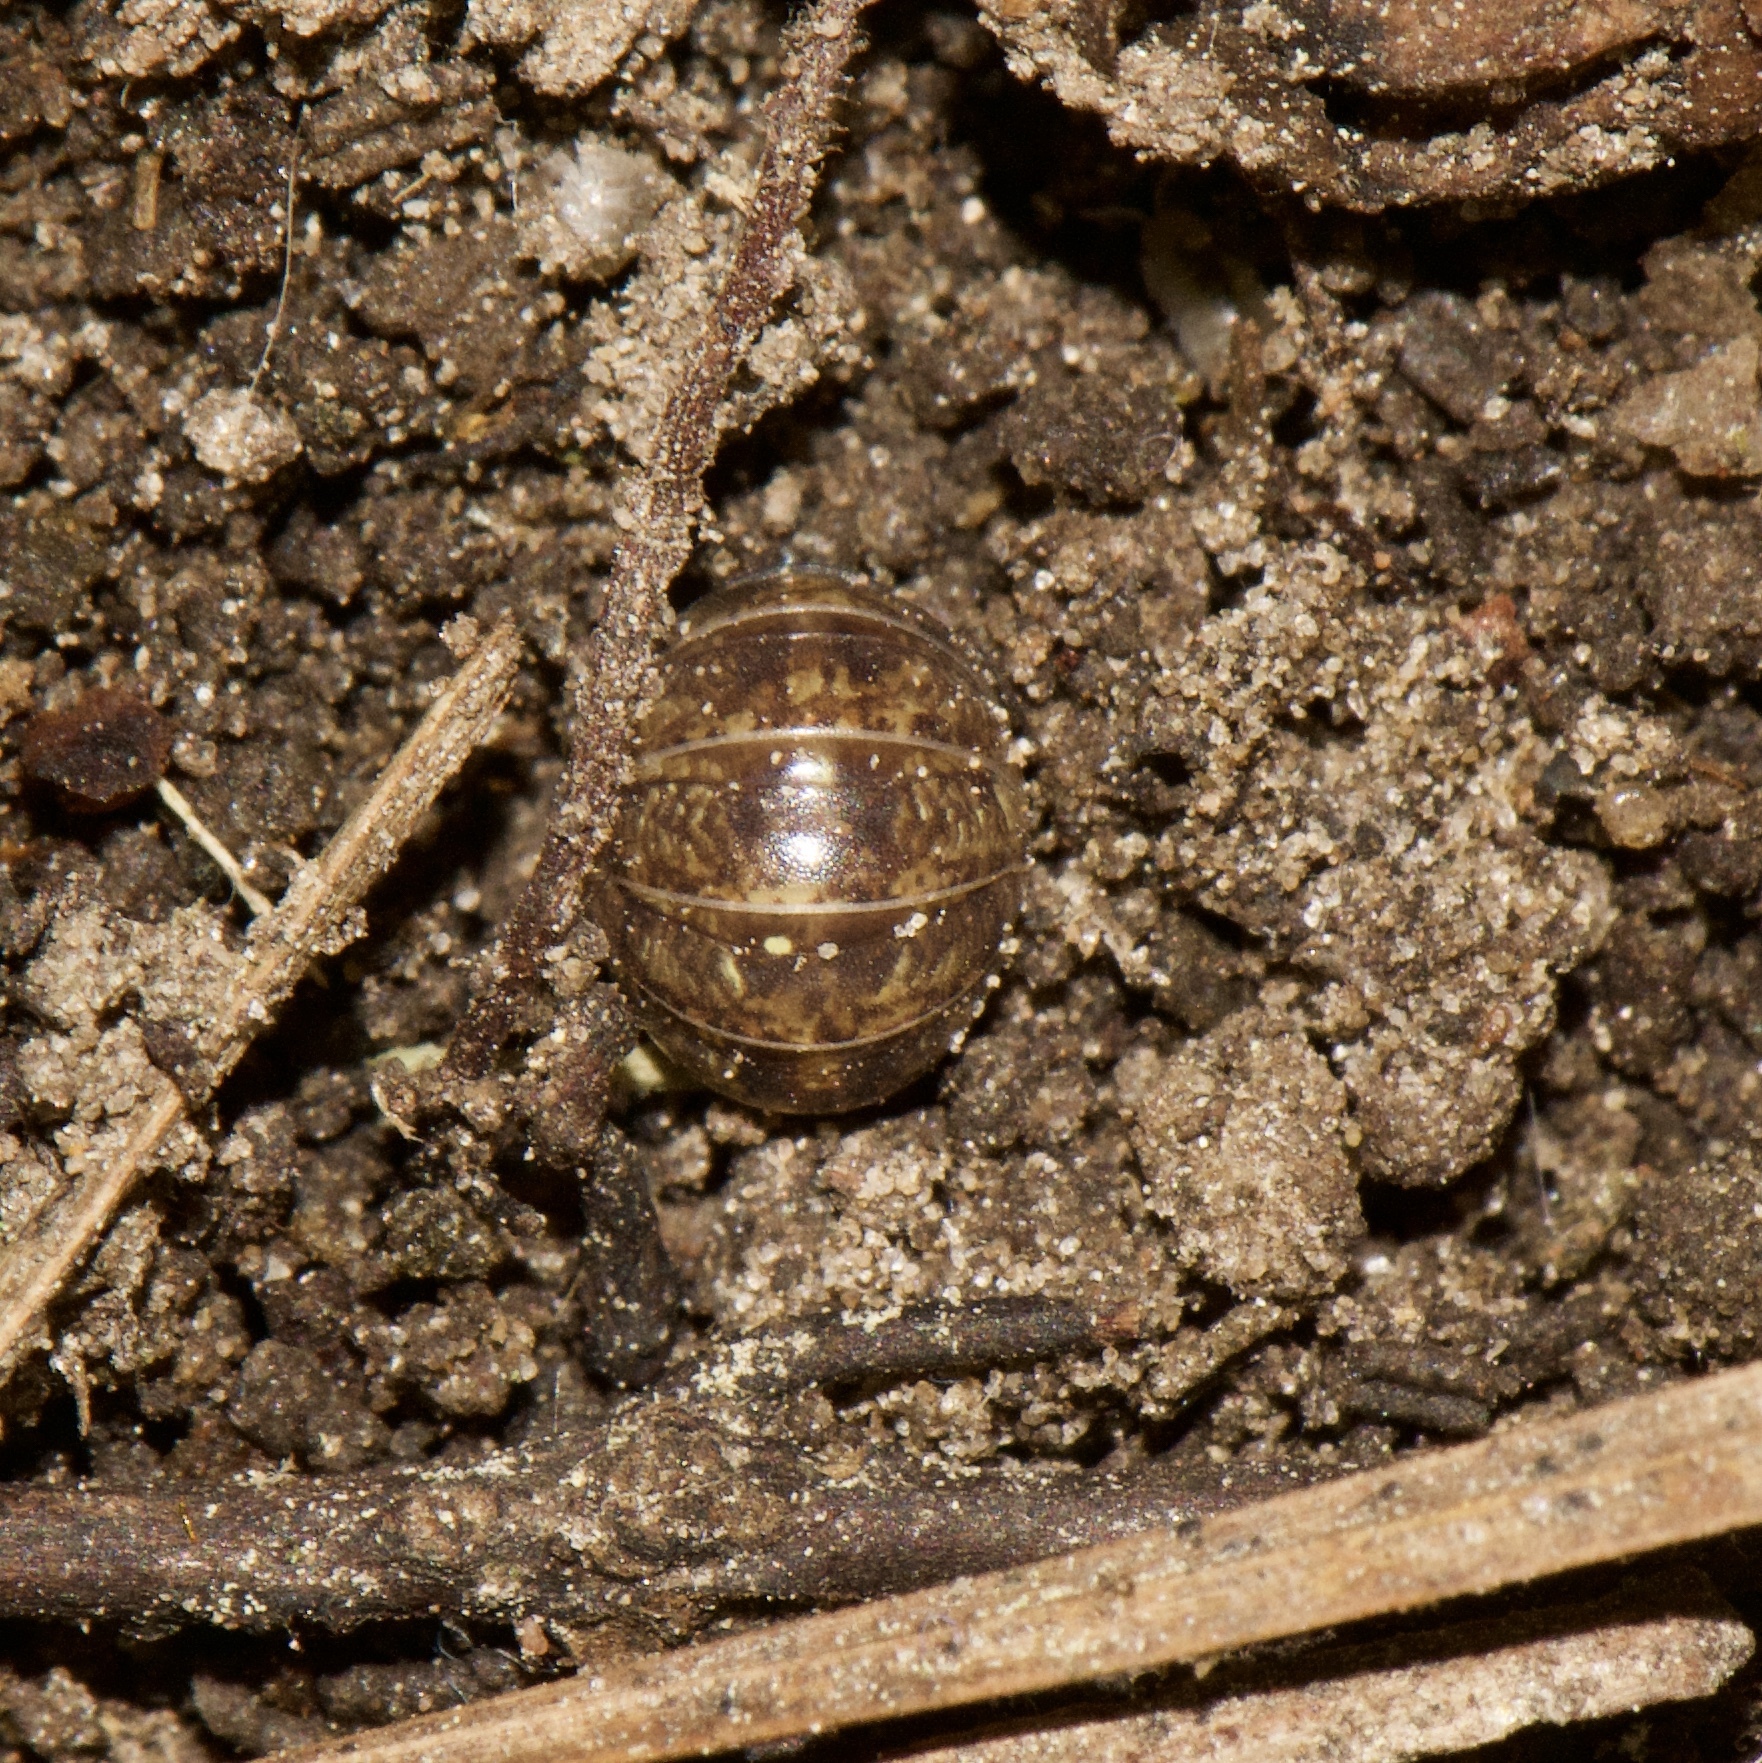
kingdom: Animalia
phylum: Arthropoda
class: Malacostraca
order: Isopoda
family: Armadillidiidae
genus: Armadillidium
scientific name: Armadillidium vulgare
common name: Common pill woodlouse
